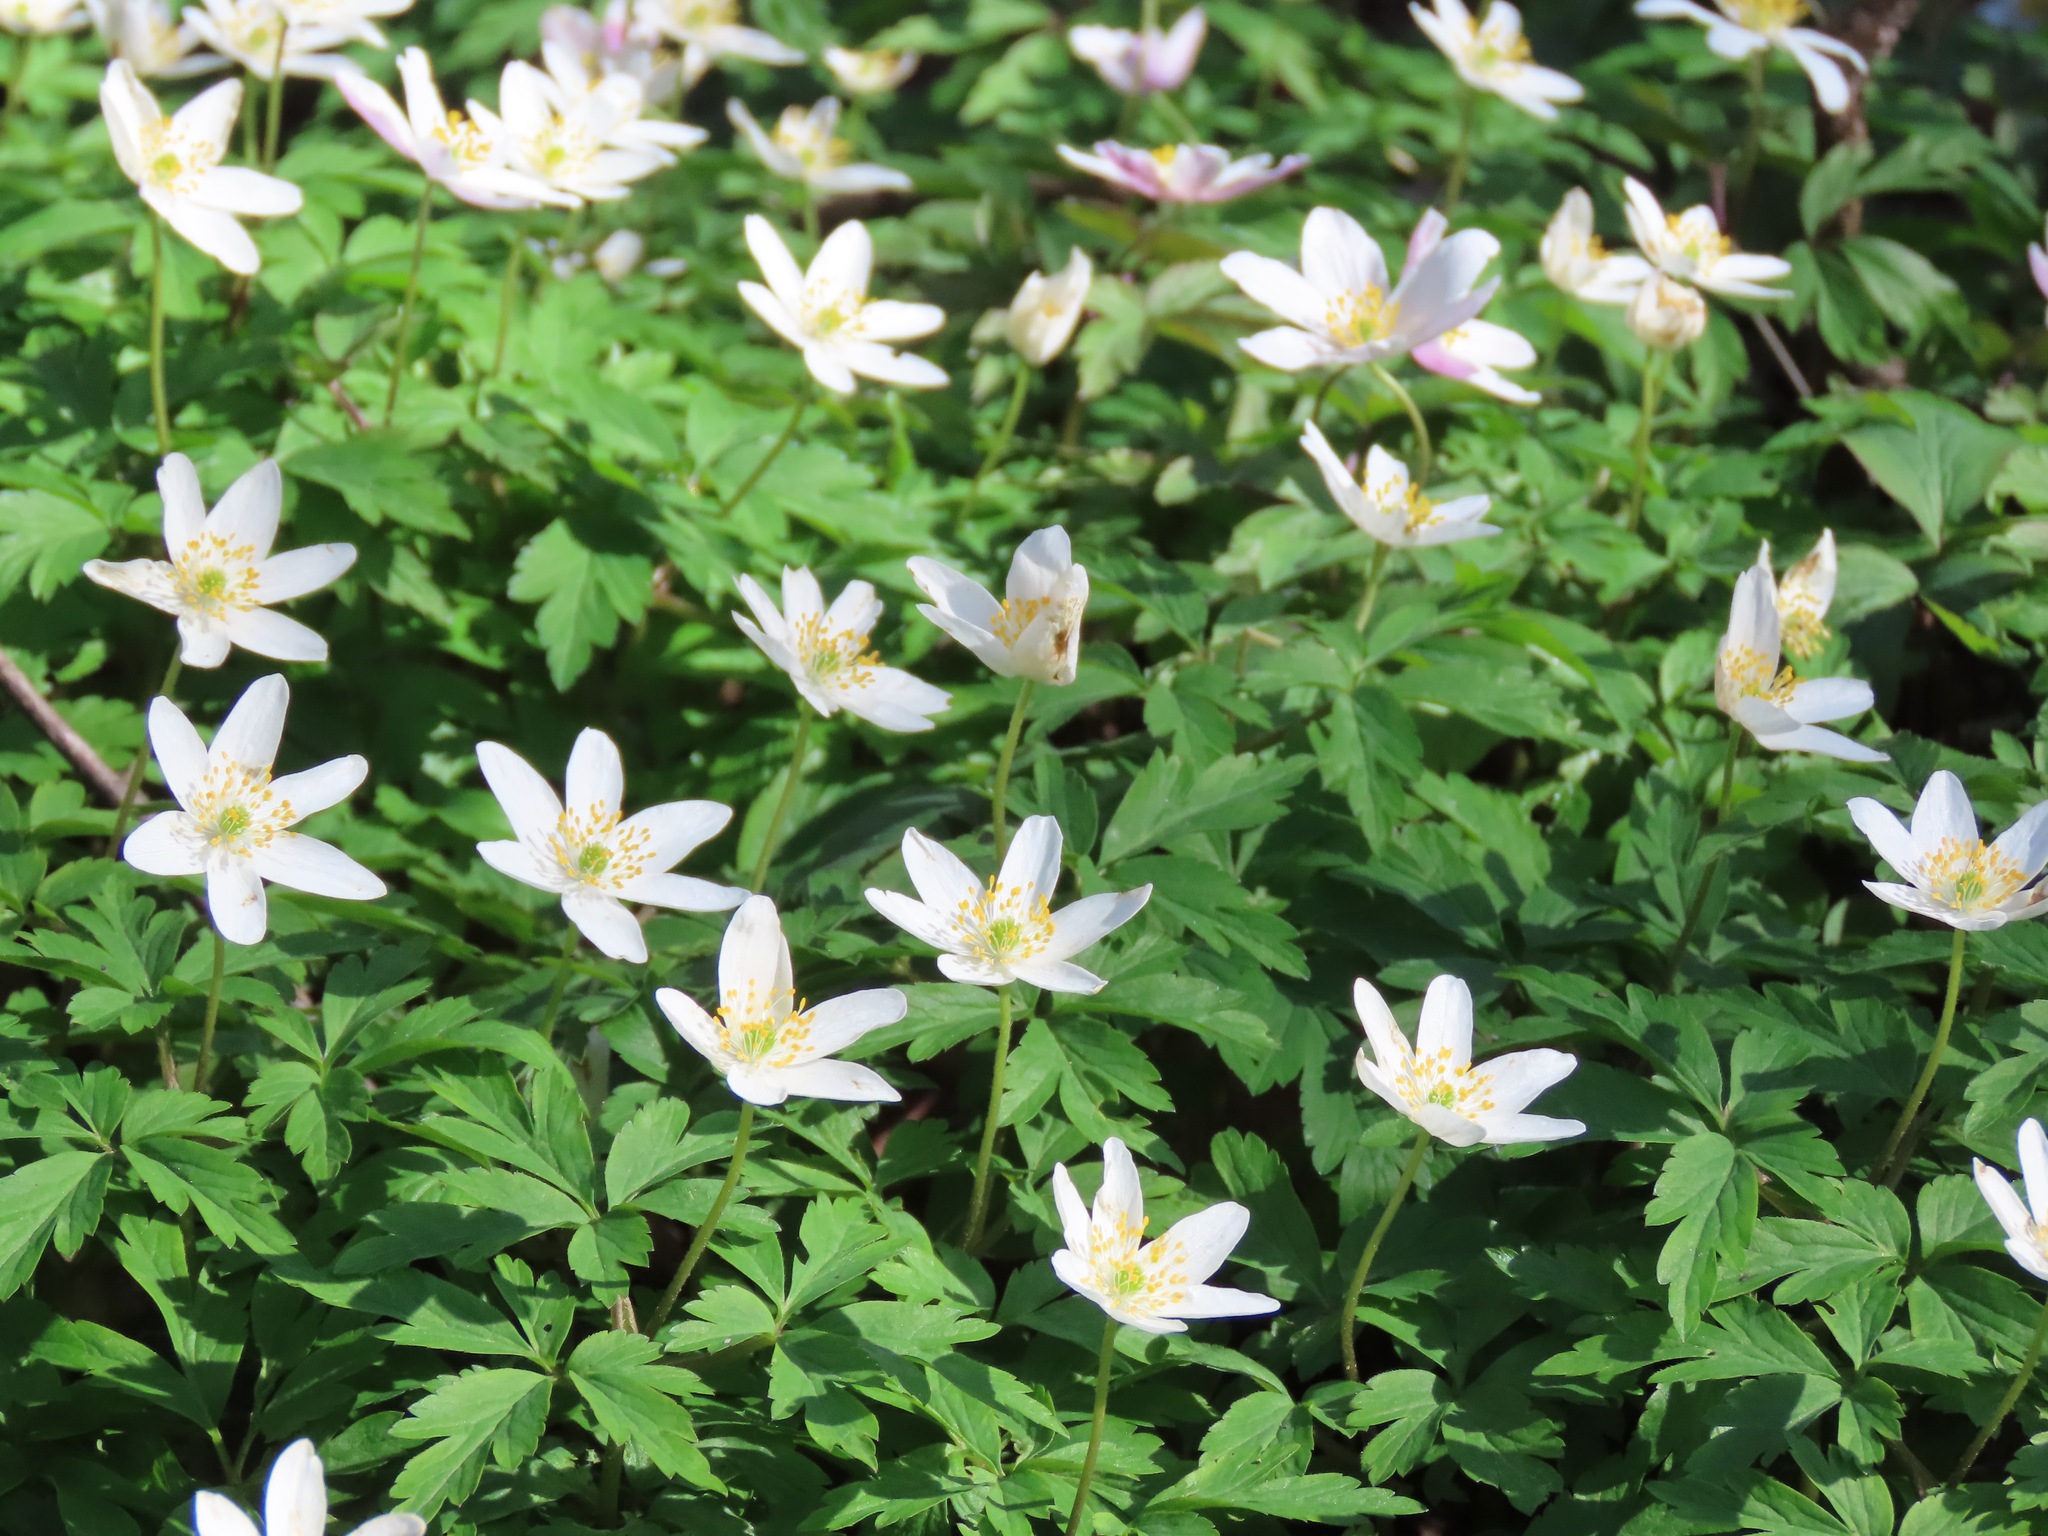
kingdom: Plantae
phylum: Tracheophyta
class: Magnoliopsida
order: Ranunculales
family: Ranunculaceae
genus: Anemone
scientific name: Anemone nemorosa
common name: Wood anemone
